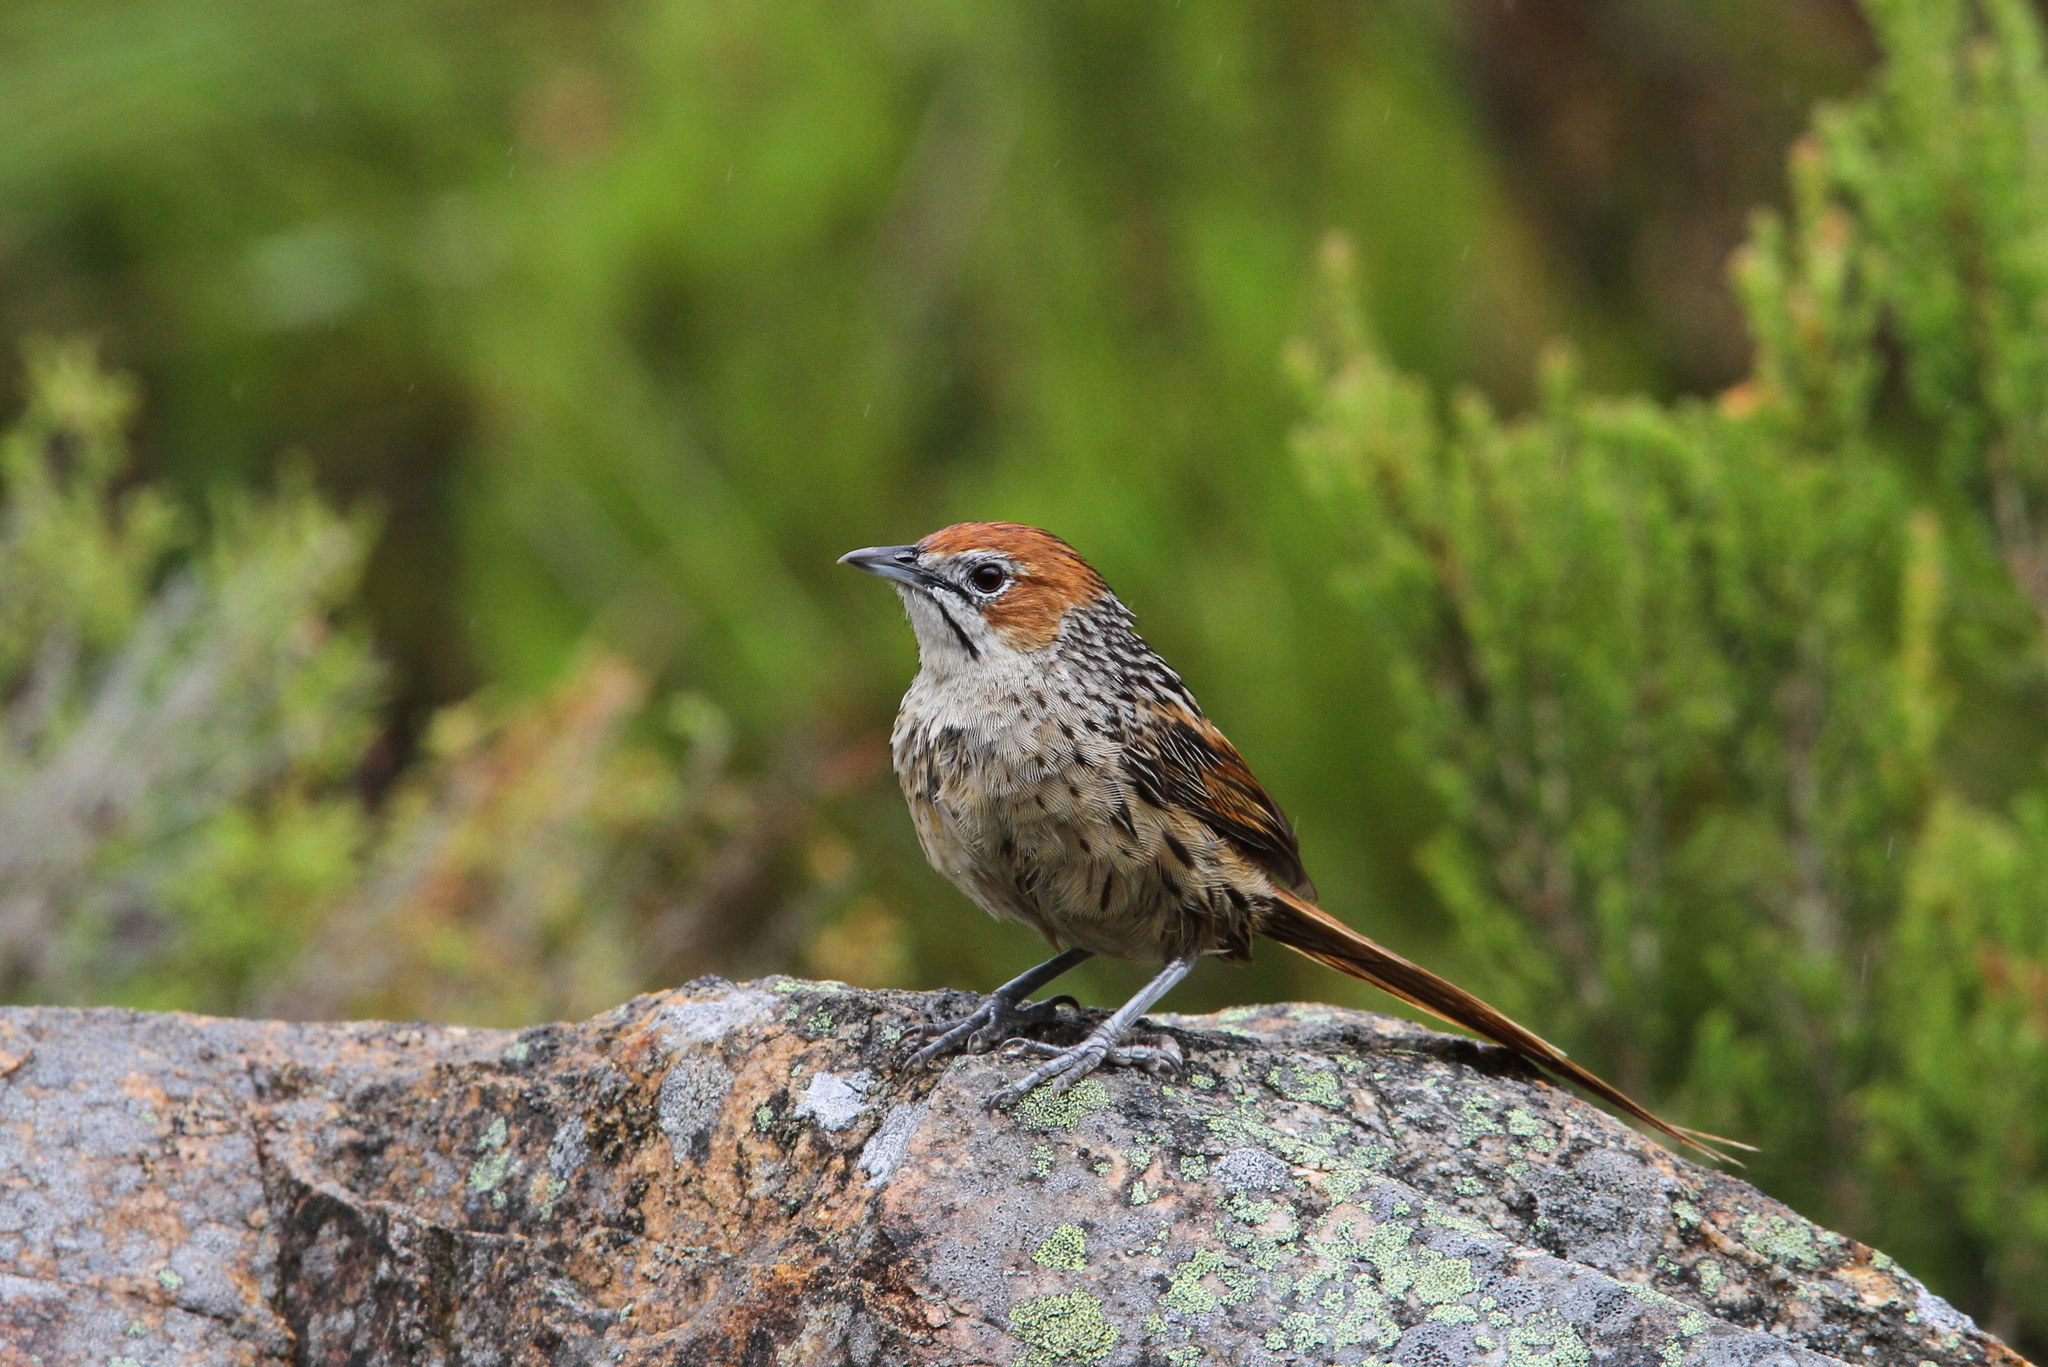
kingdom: Animalia
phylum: Chordata
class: Aves
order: Passeriformes
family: Macrosphenidae
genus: Sphenoeacus
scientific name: Sphenoeacus afer
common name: Cape grassbird
